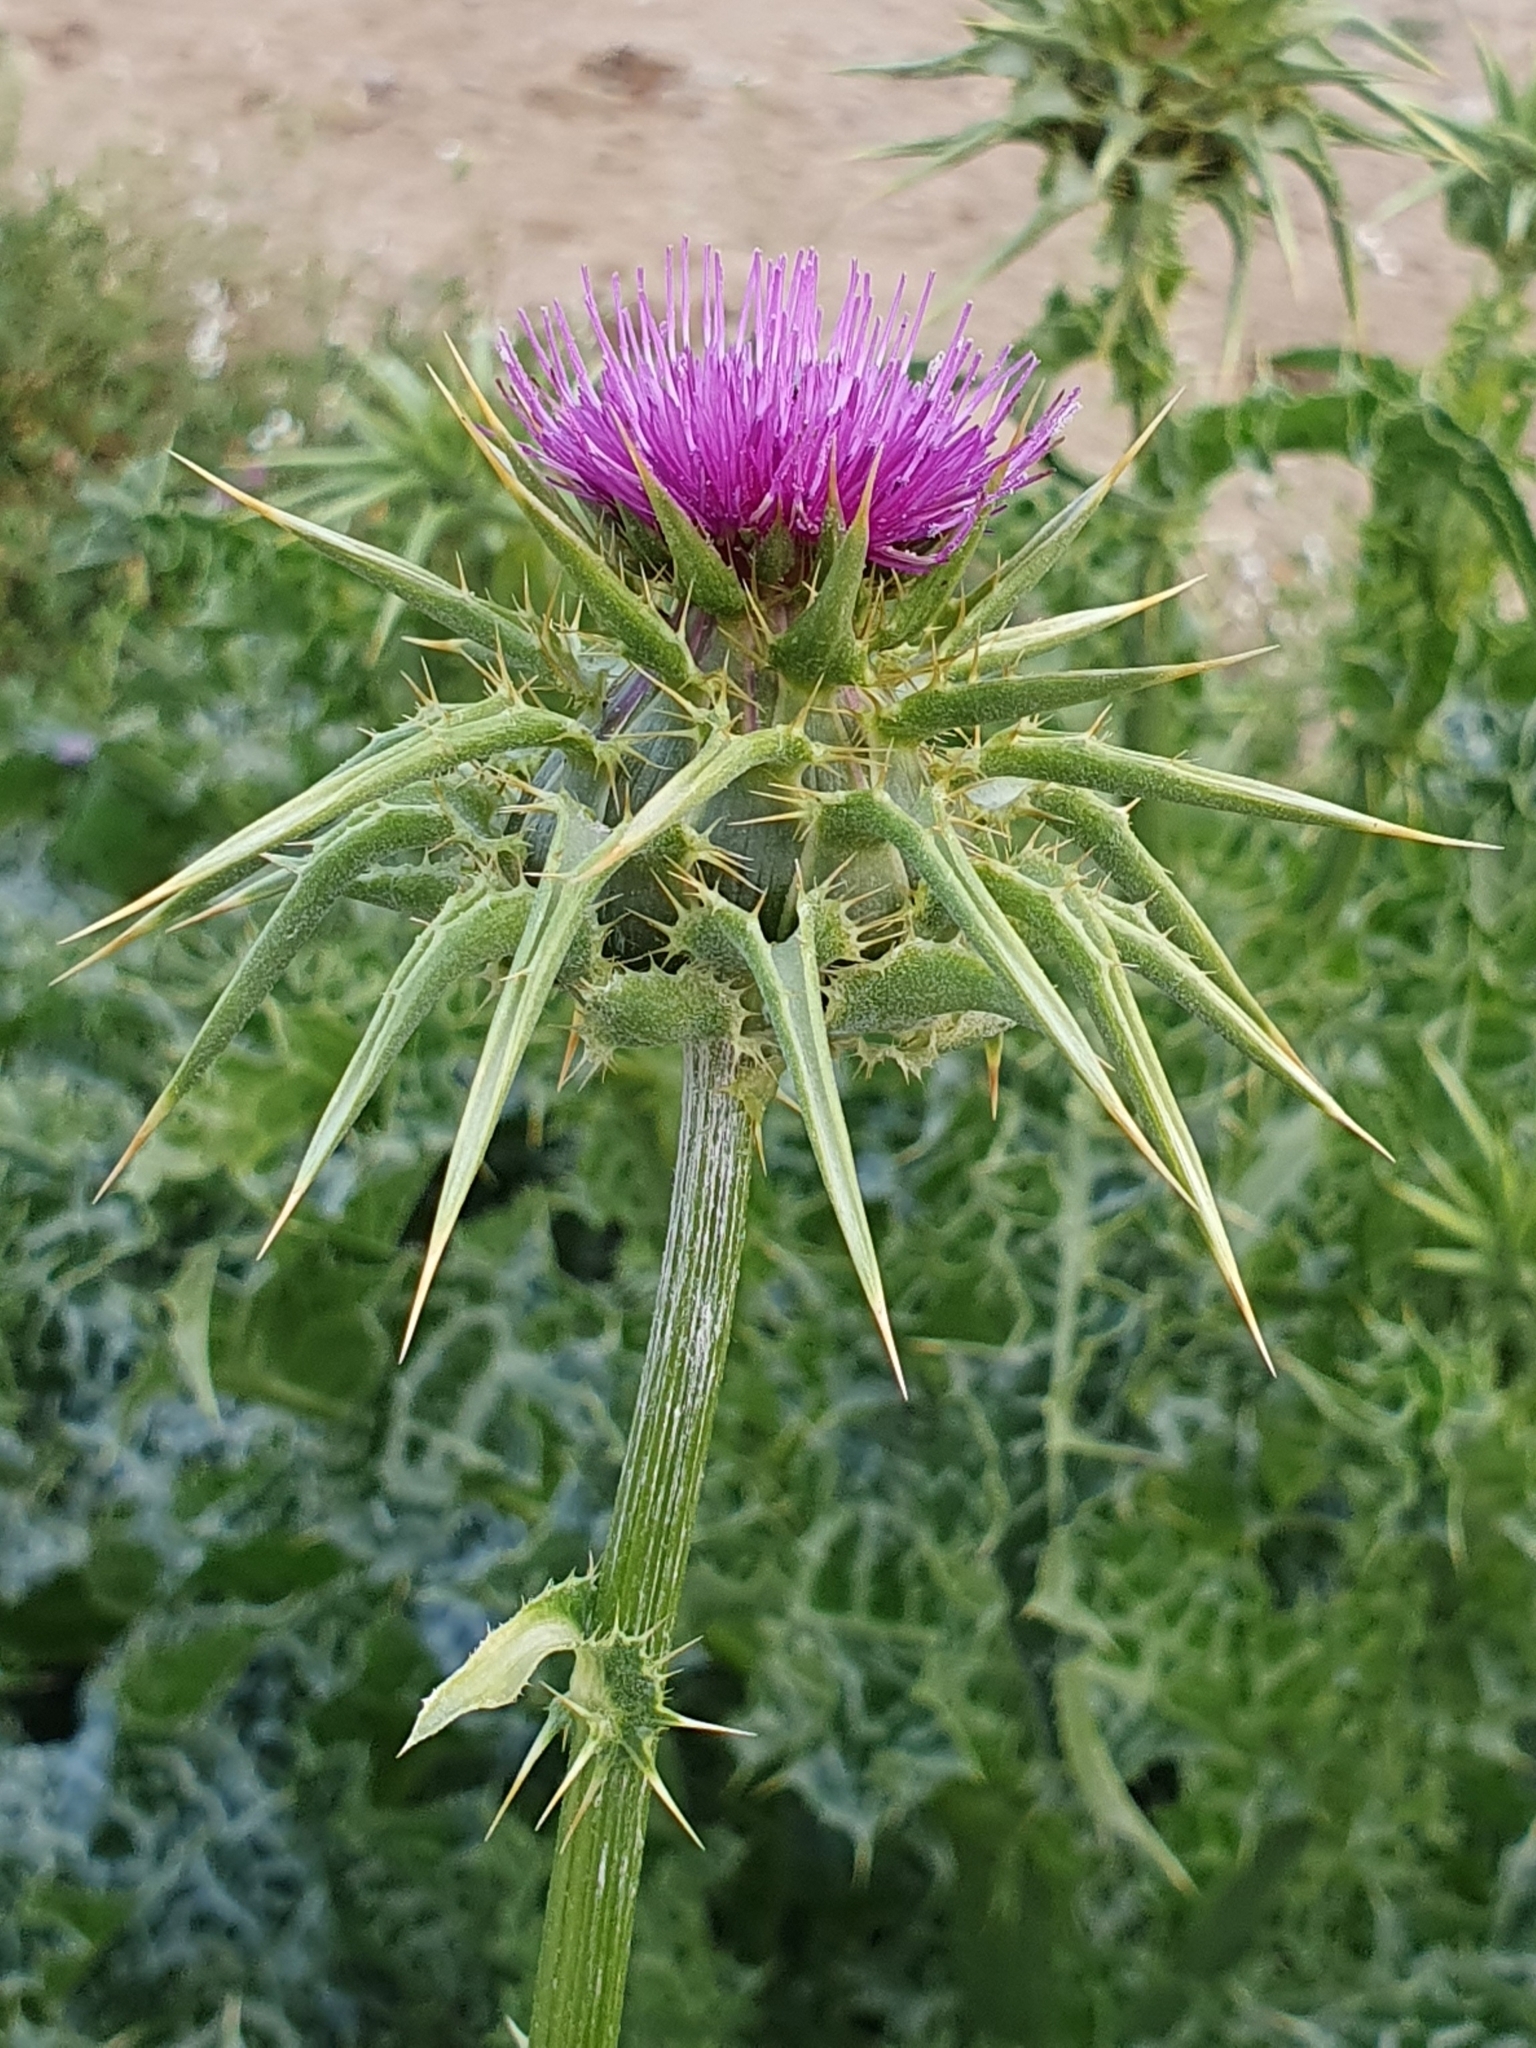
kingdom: Plantae
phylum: Tracheophyta
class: Magnoliopsida
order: Asterales
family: Asteraceae
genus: Silybum
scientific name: Silybum marianum
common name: Milk thistle
